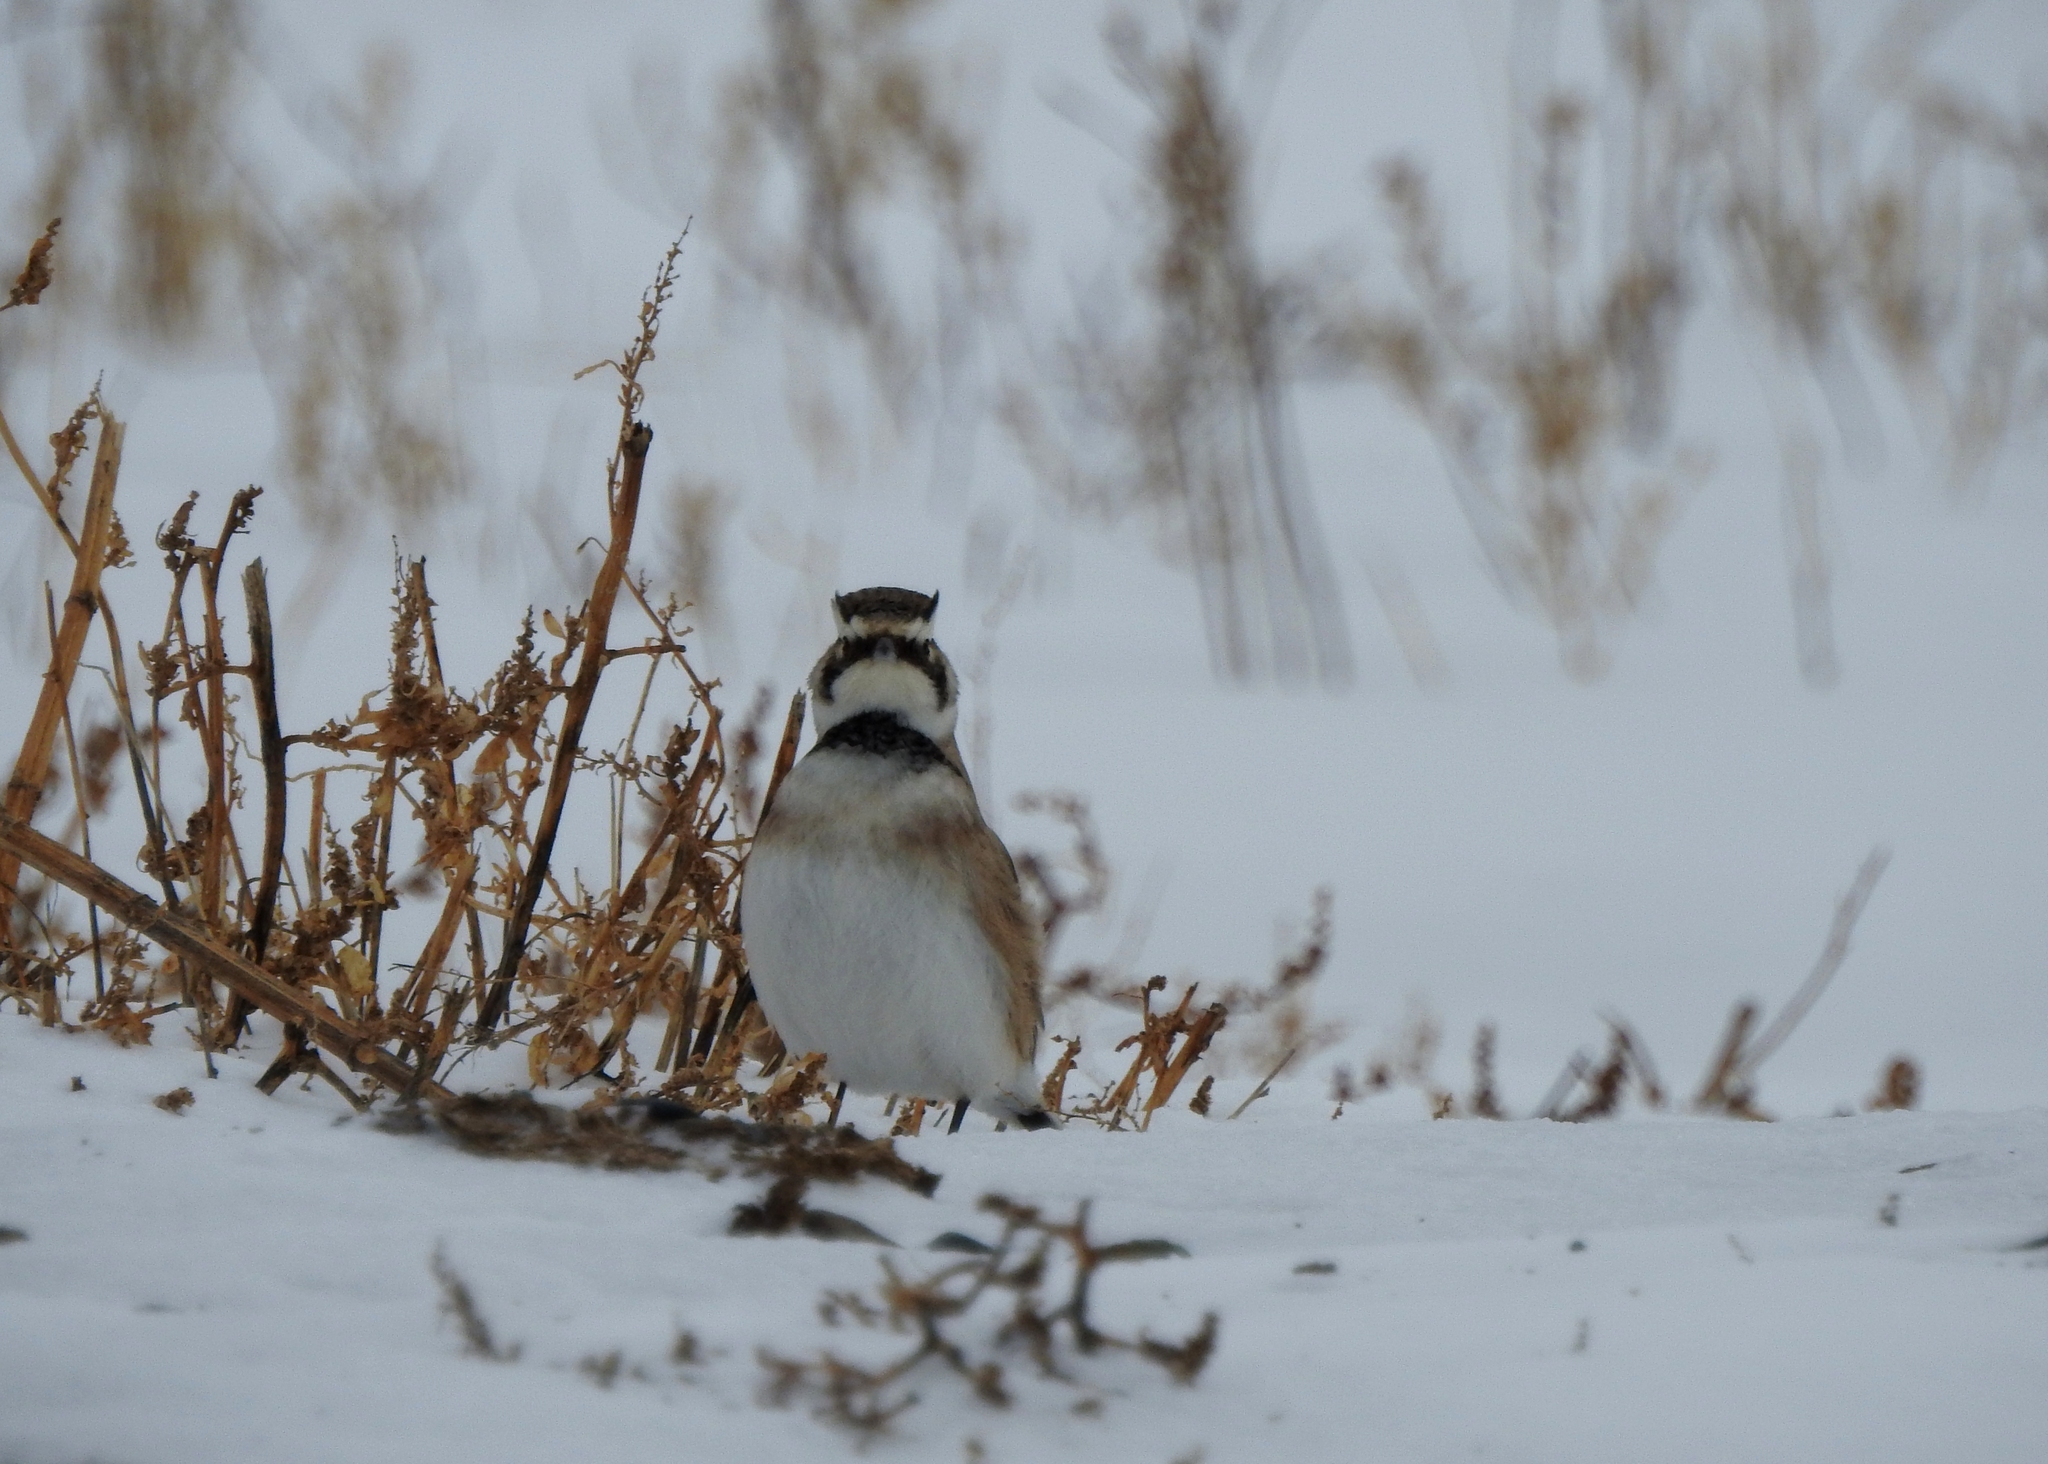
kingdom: Animalia
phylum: Chordata
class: Aves
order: Passeriformes
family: Alaudidae
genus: Eremophila
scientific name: Eremophila alpestris
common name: Horned lark
